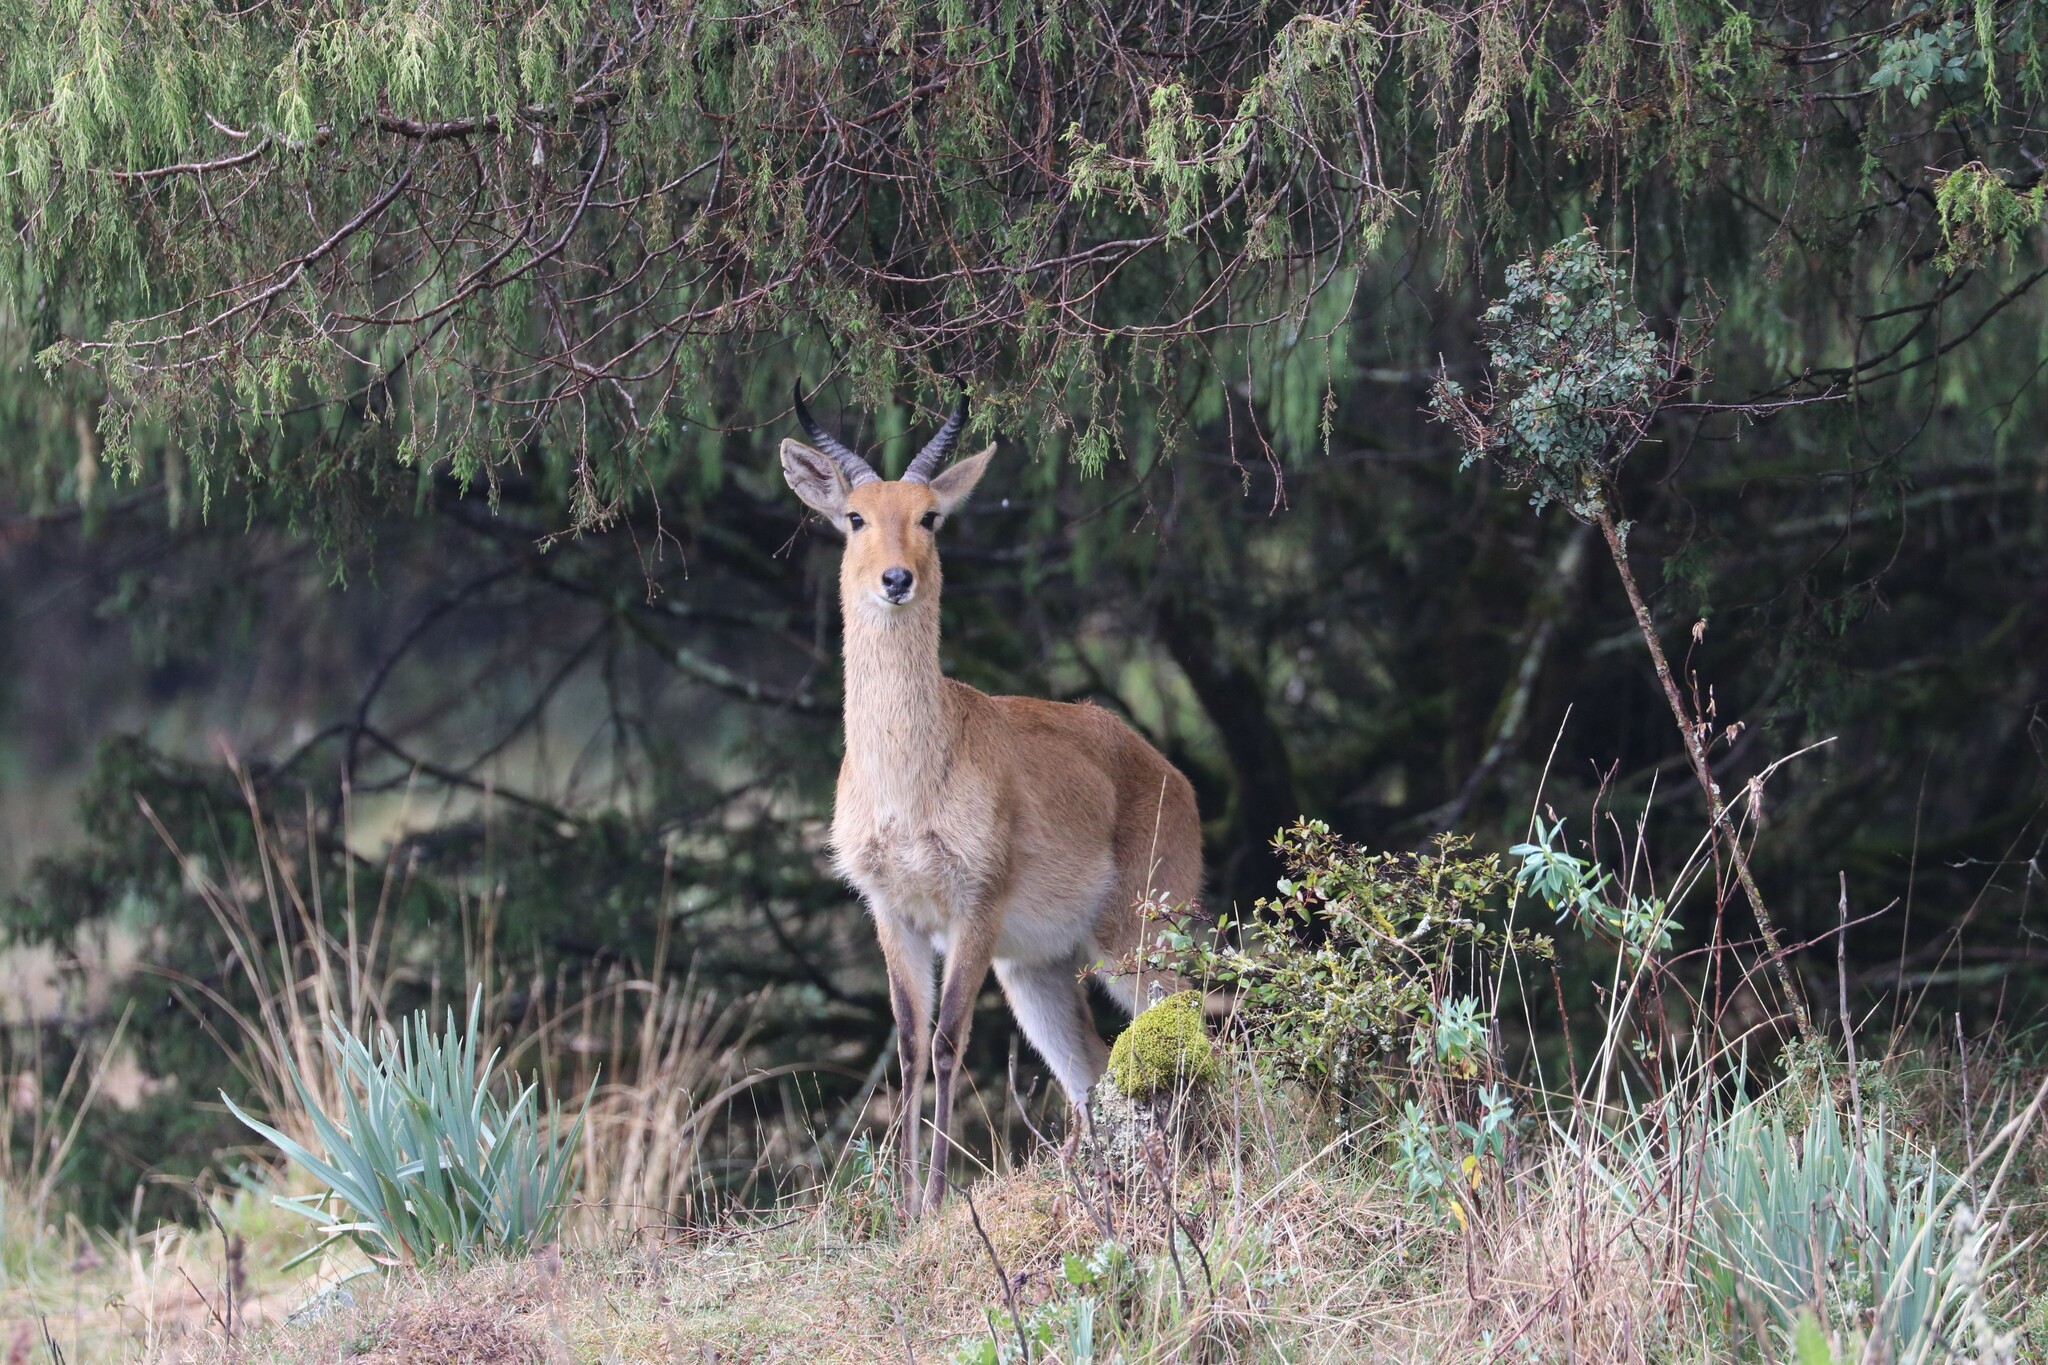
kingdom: Animalia
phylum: Chordata
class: Mammalia
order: Artiodactyla
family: Bovidae
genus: Redunca
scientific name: Redunca redunca
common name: Common reedbuck
